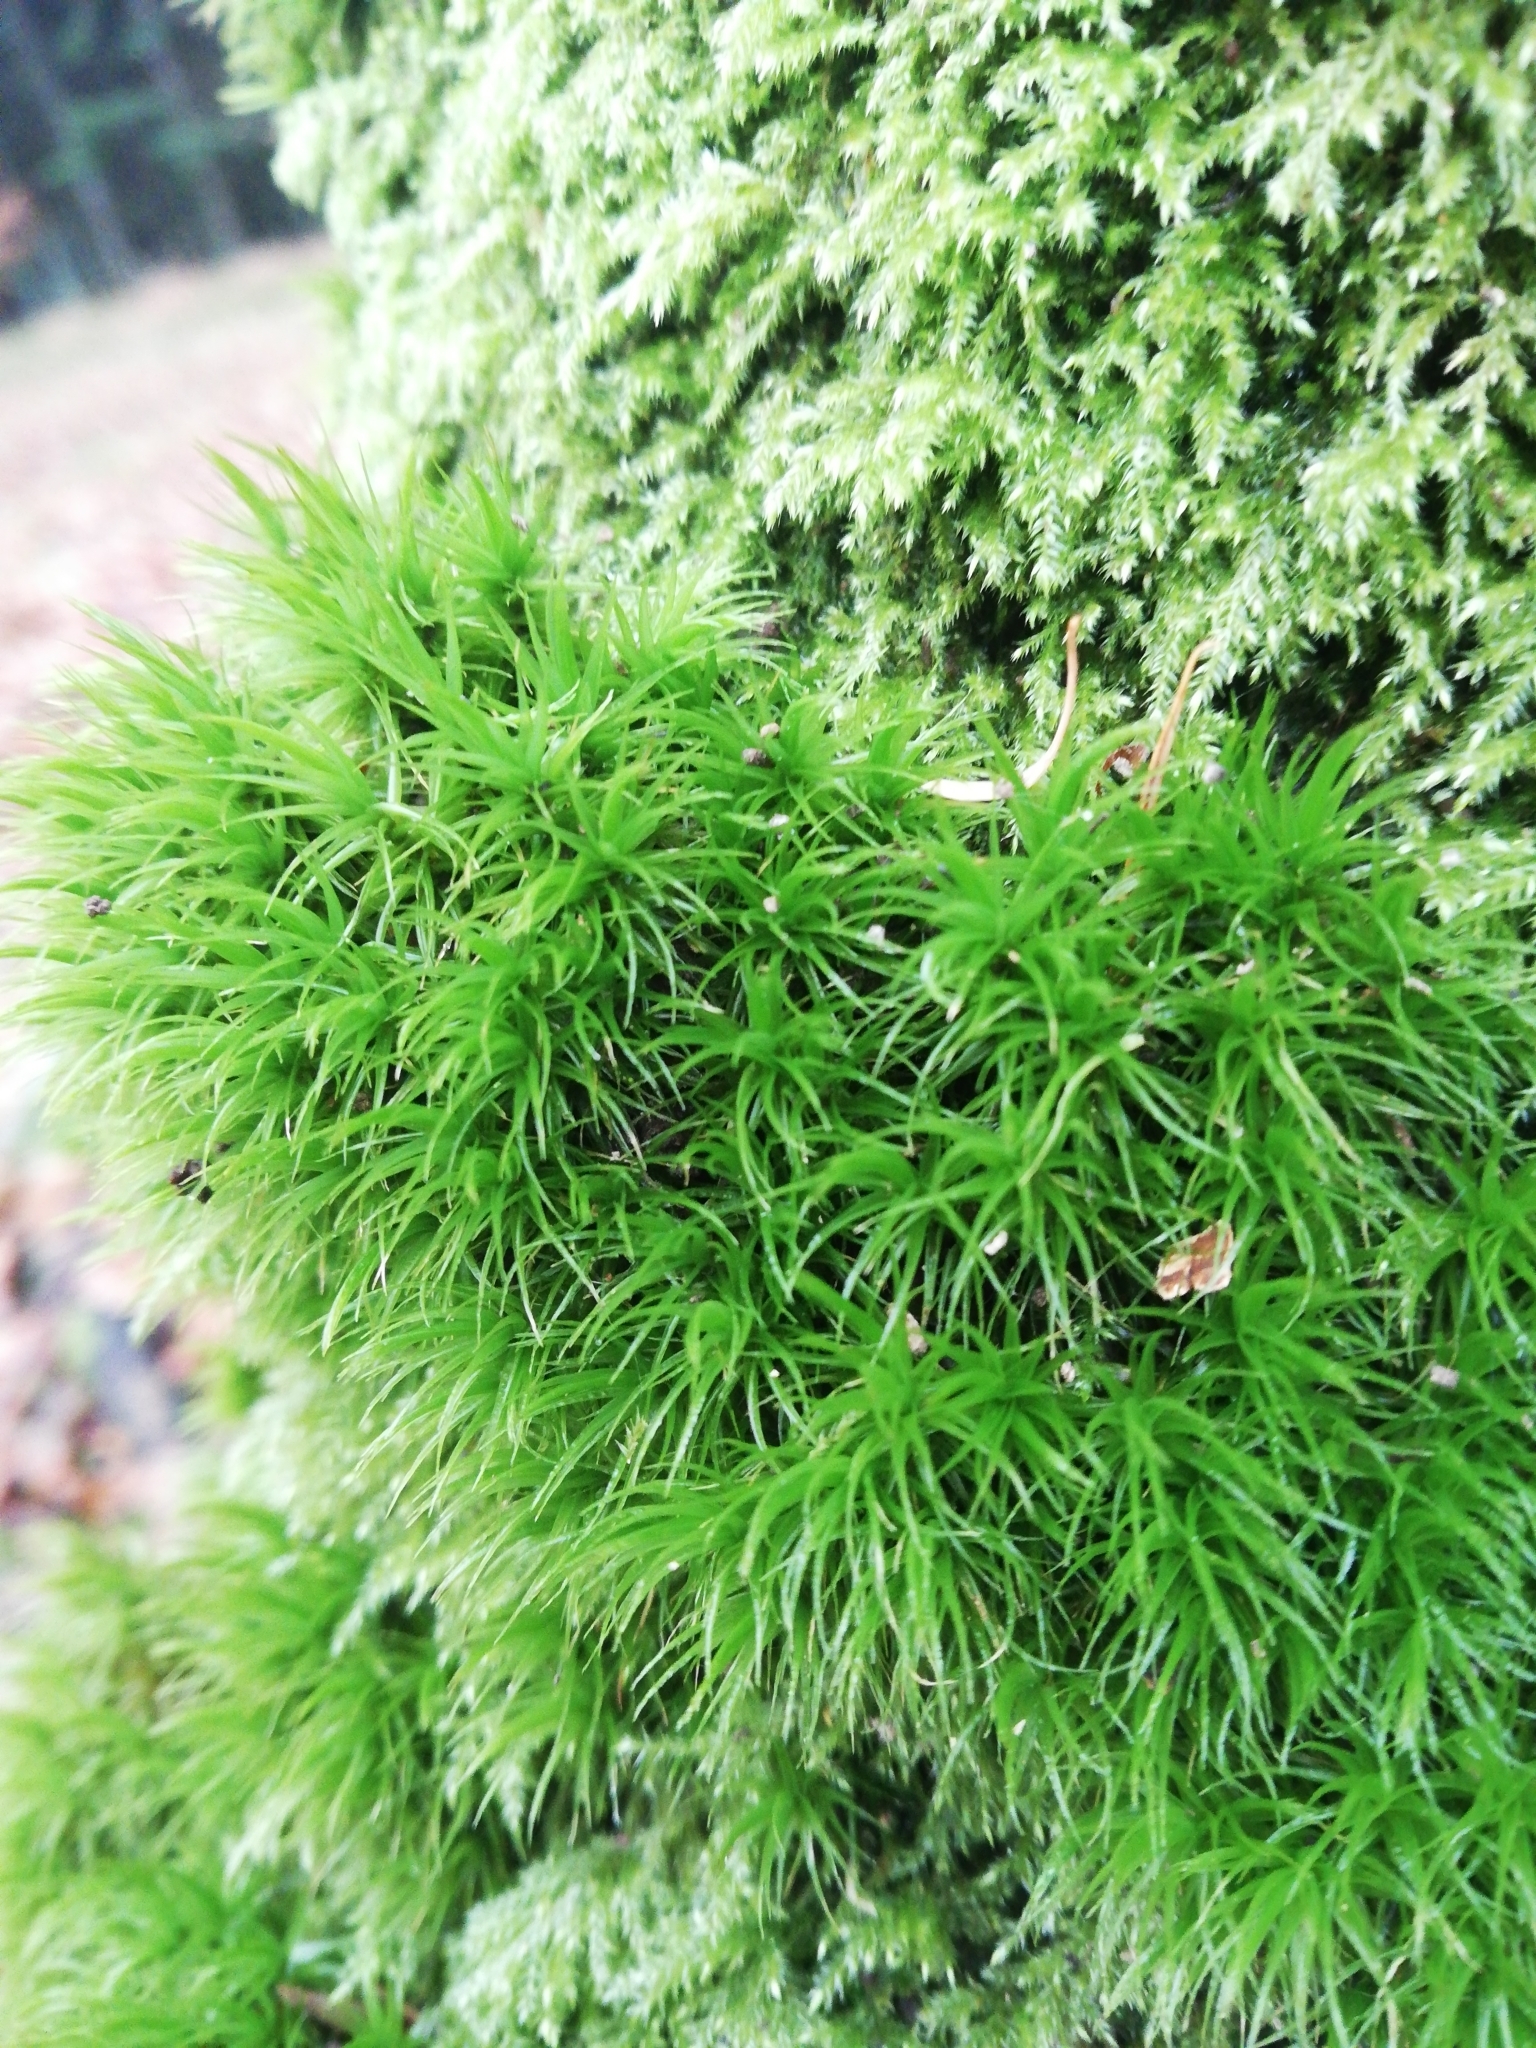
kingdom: Plantae
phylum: Bryophyta
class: Bryopsida
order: Dicranales
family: Dicranaceae
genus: Dicranum
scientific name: Dicranum scoparium
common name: Broom fork-moss
